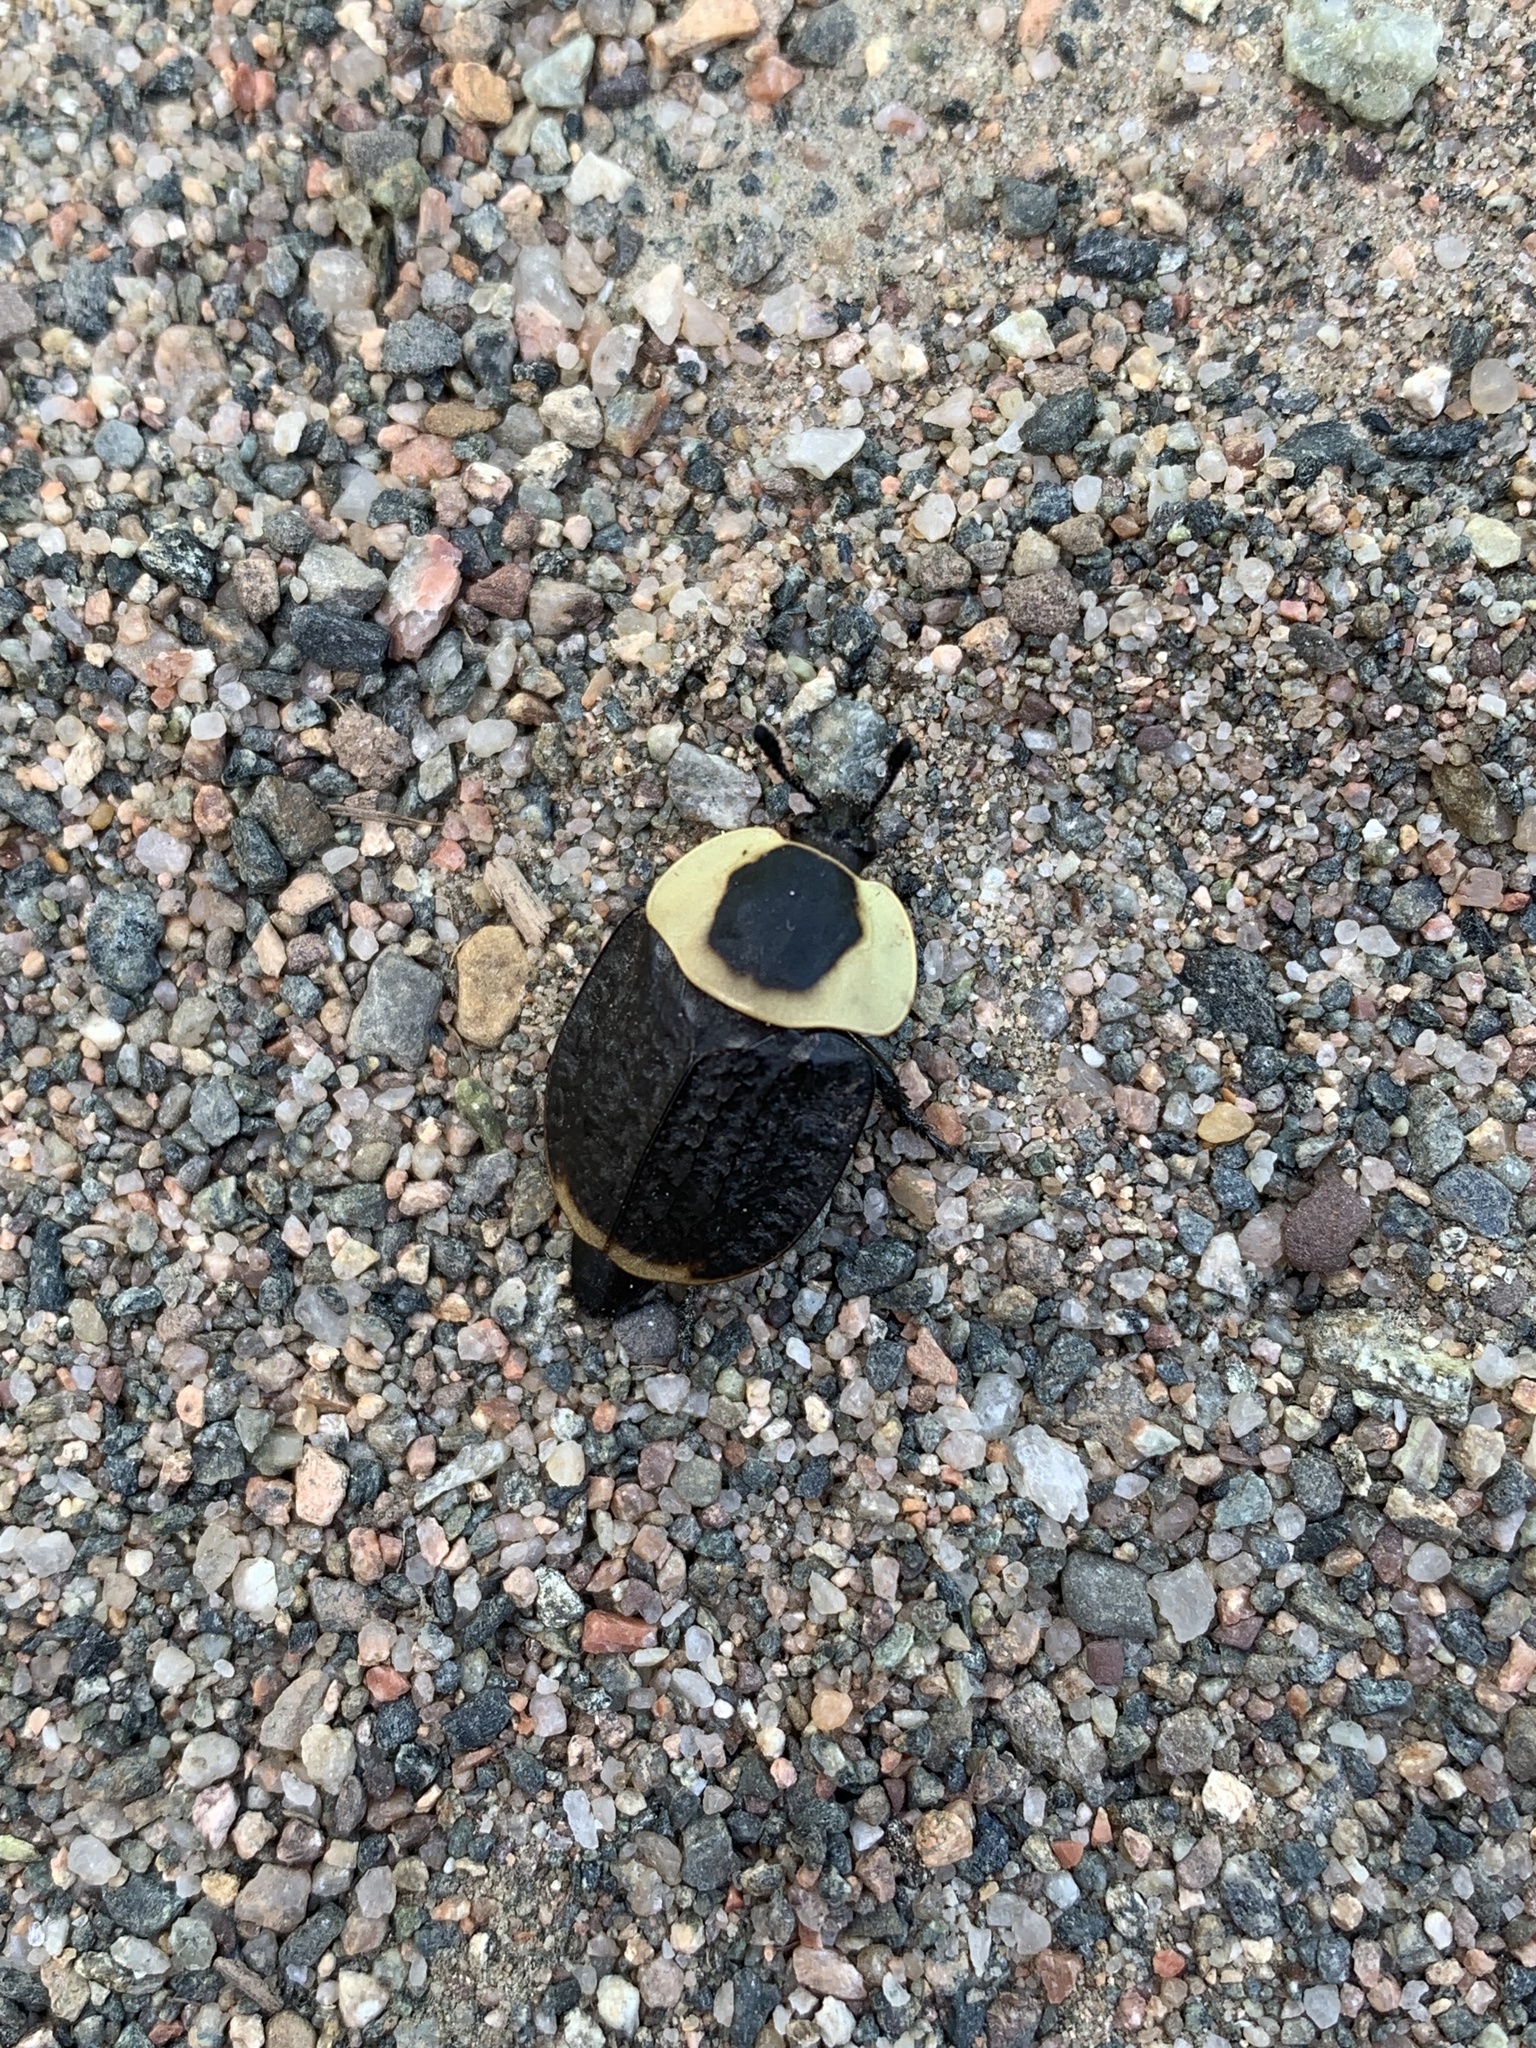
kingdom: Animalia
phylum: Arthropoda
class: Insecta
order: Coleoptera
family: Staphylinidae
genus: Necrophila
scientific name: Necrophila americana
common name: American carrion beetle
